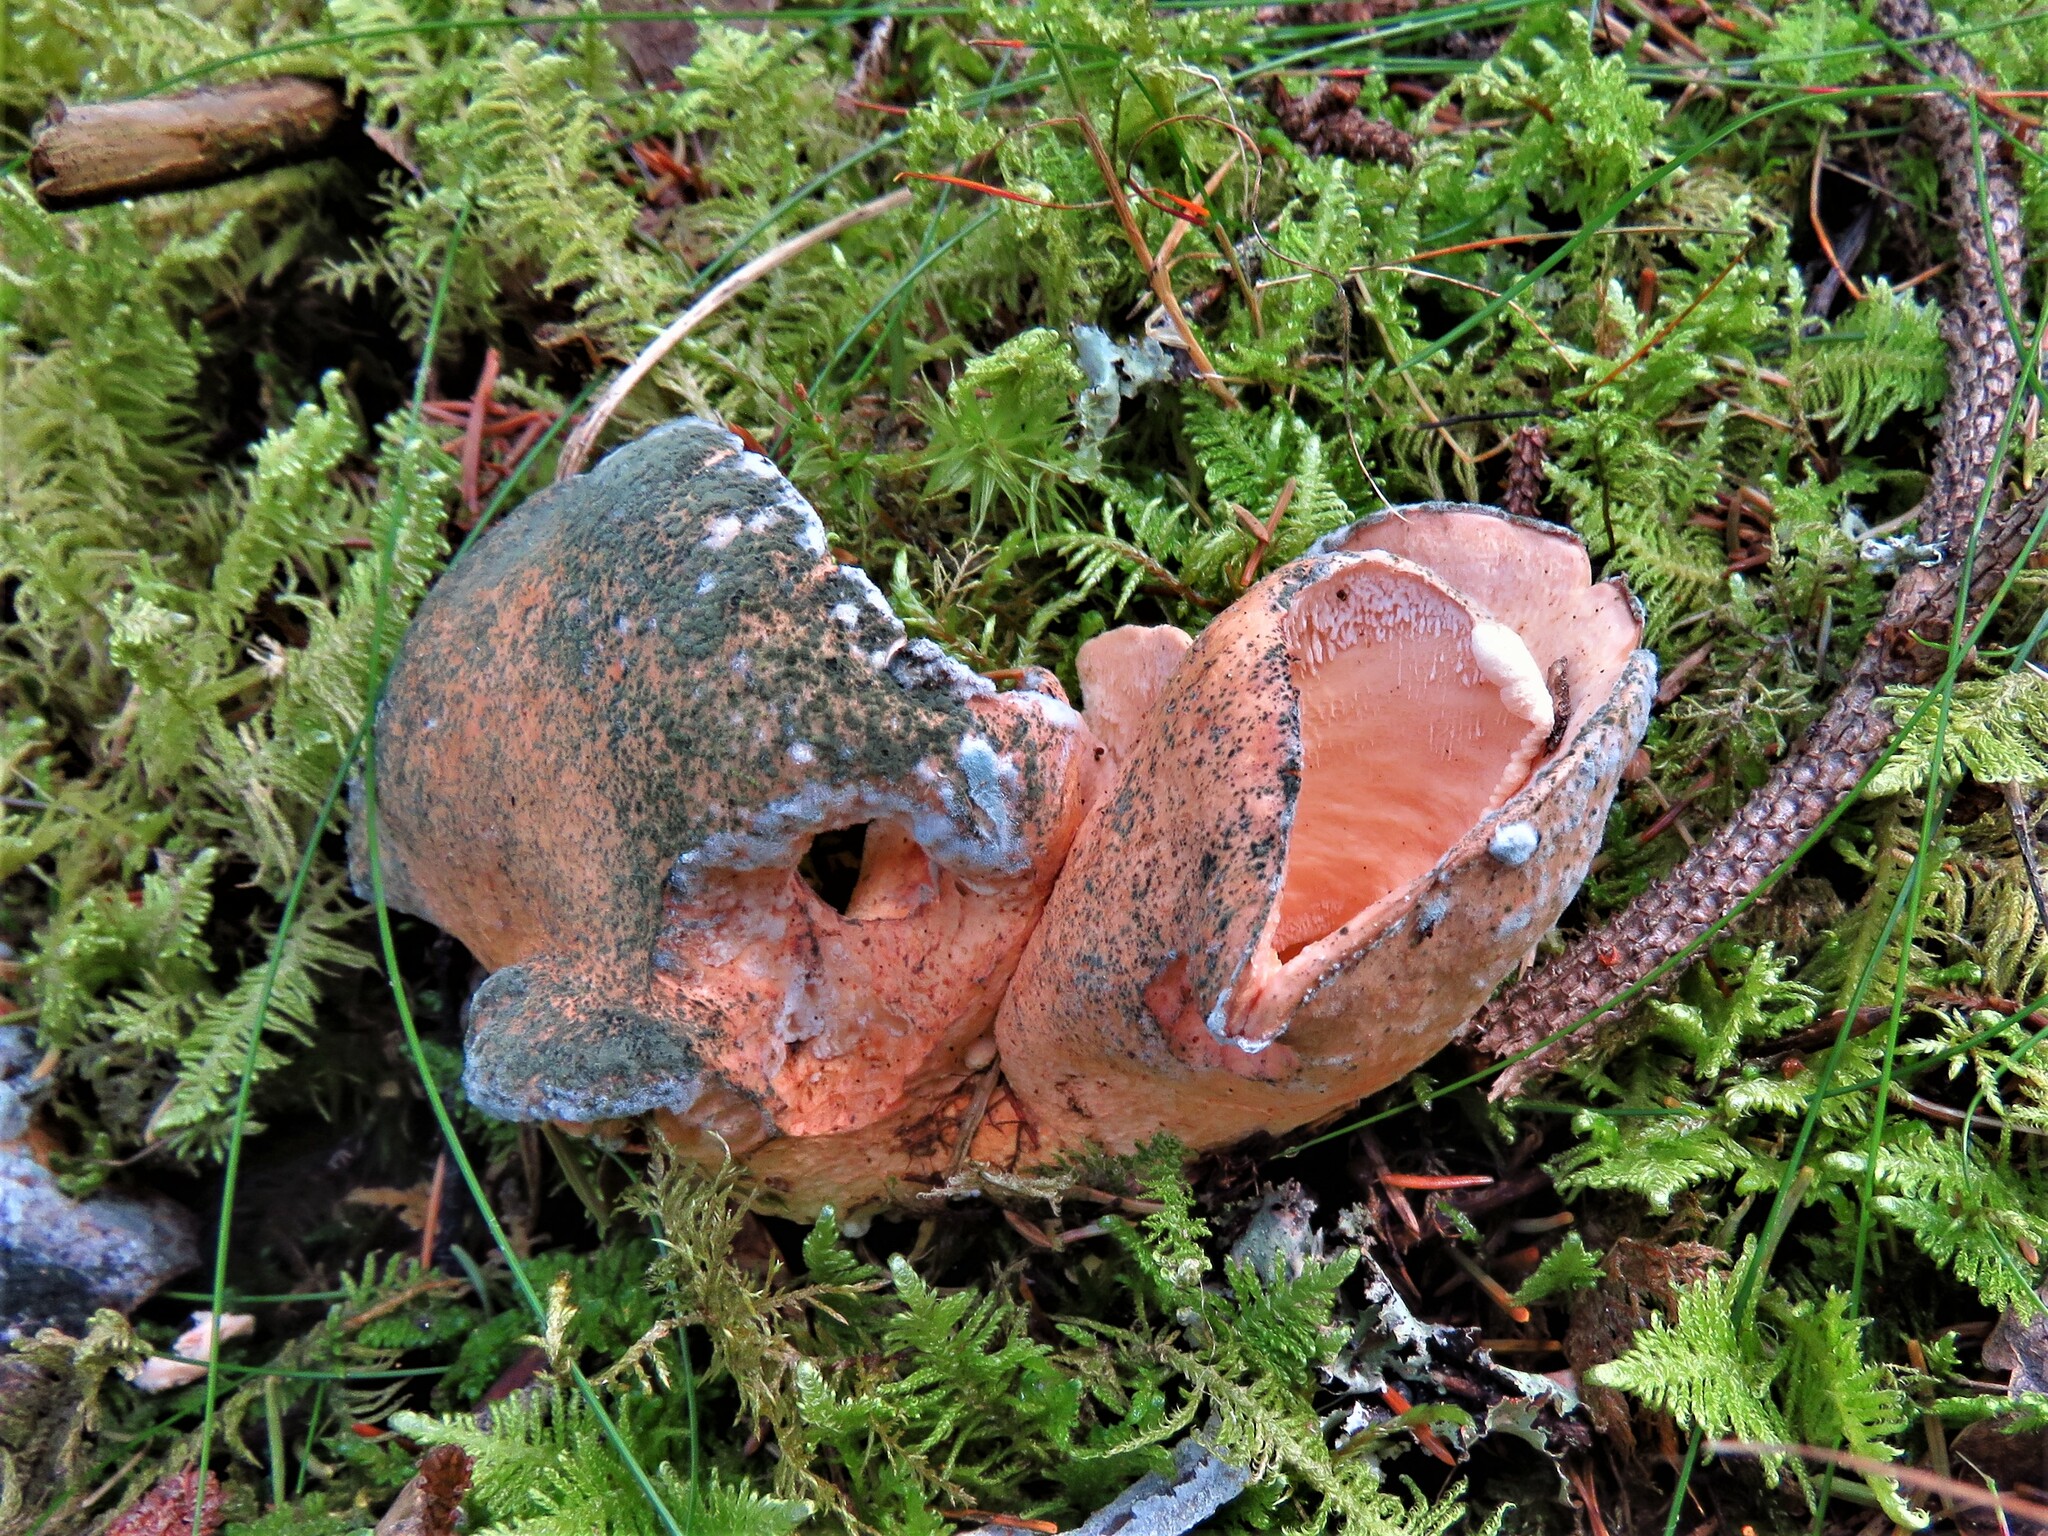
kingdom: Fungi
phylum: Basidiomycota
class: Agaricomycetes
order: Russulales
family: Albatrellaceae
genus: Albatrellopsis
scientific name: Albatrellopsis confluens
